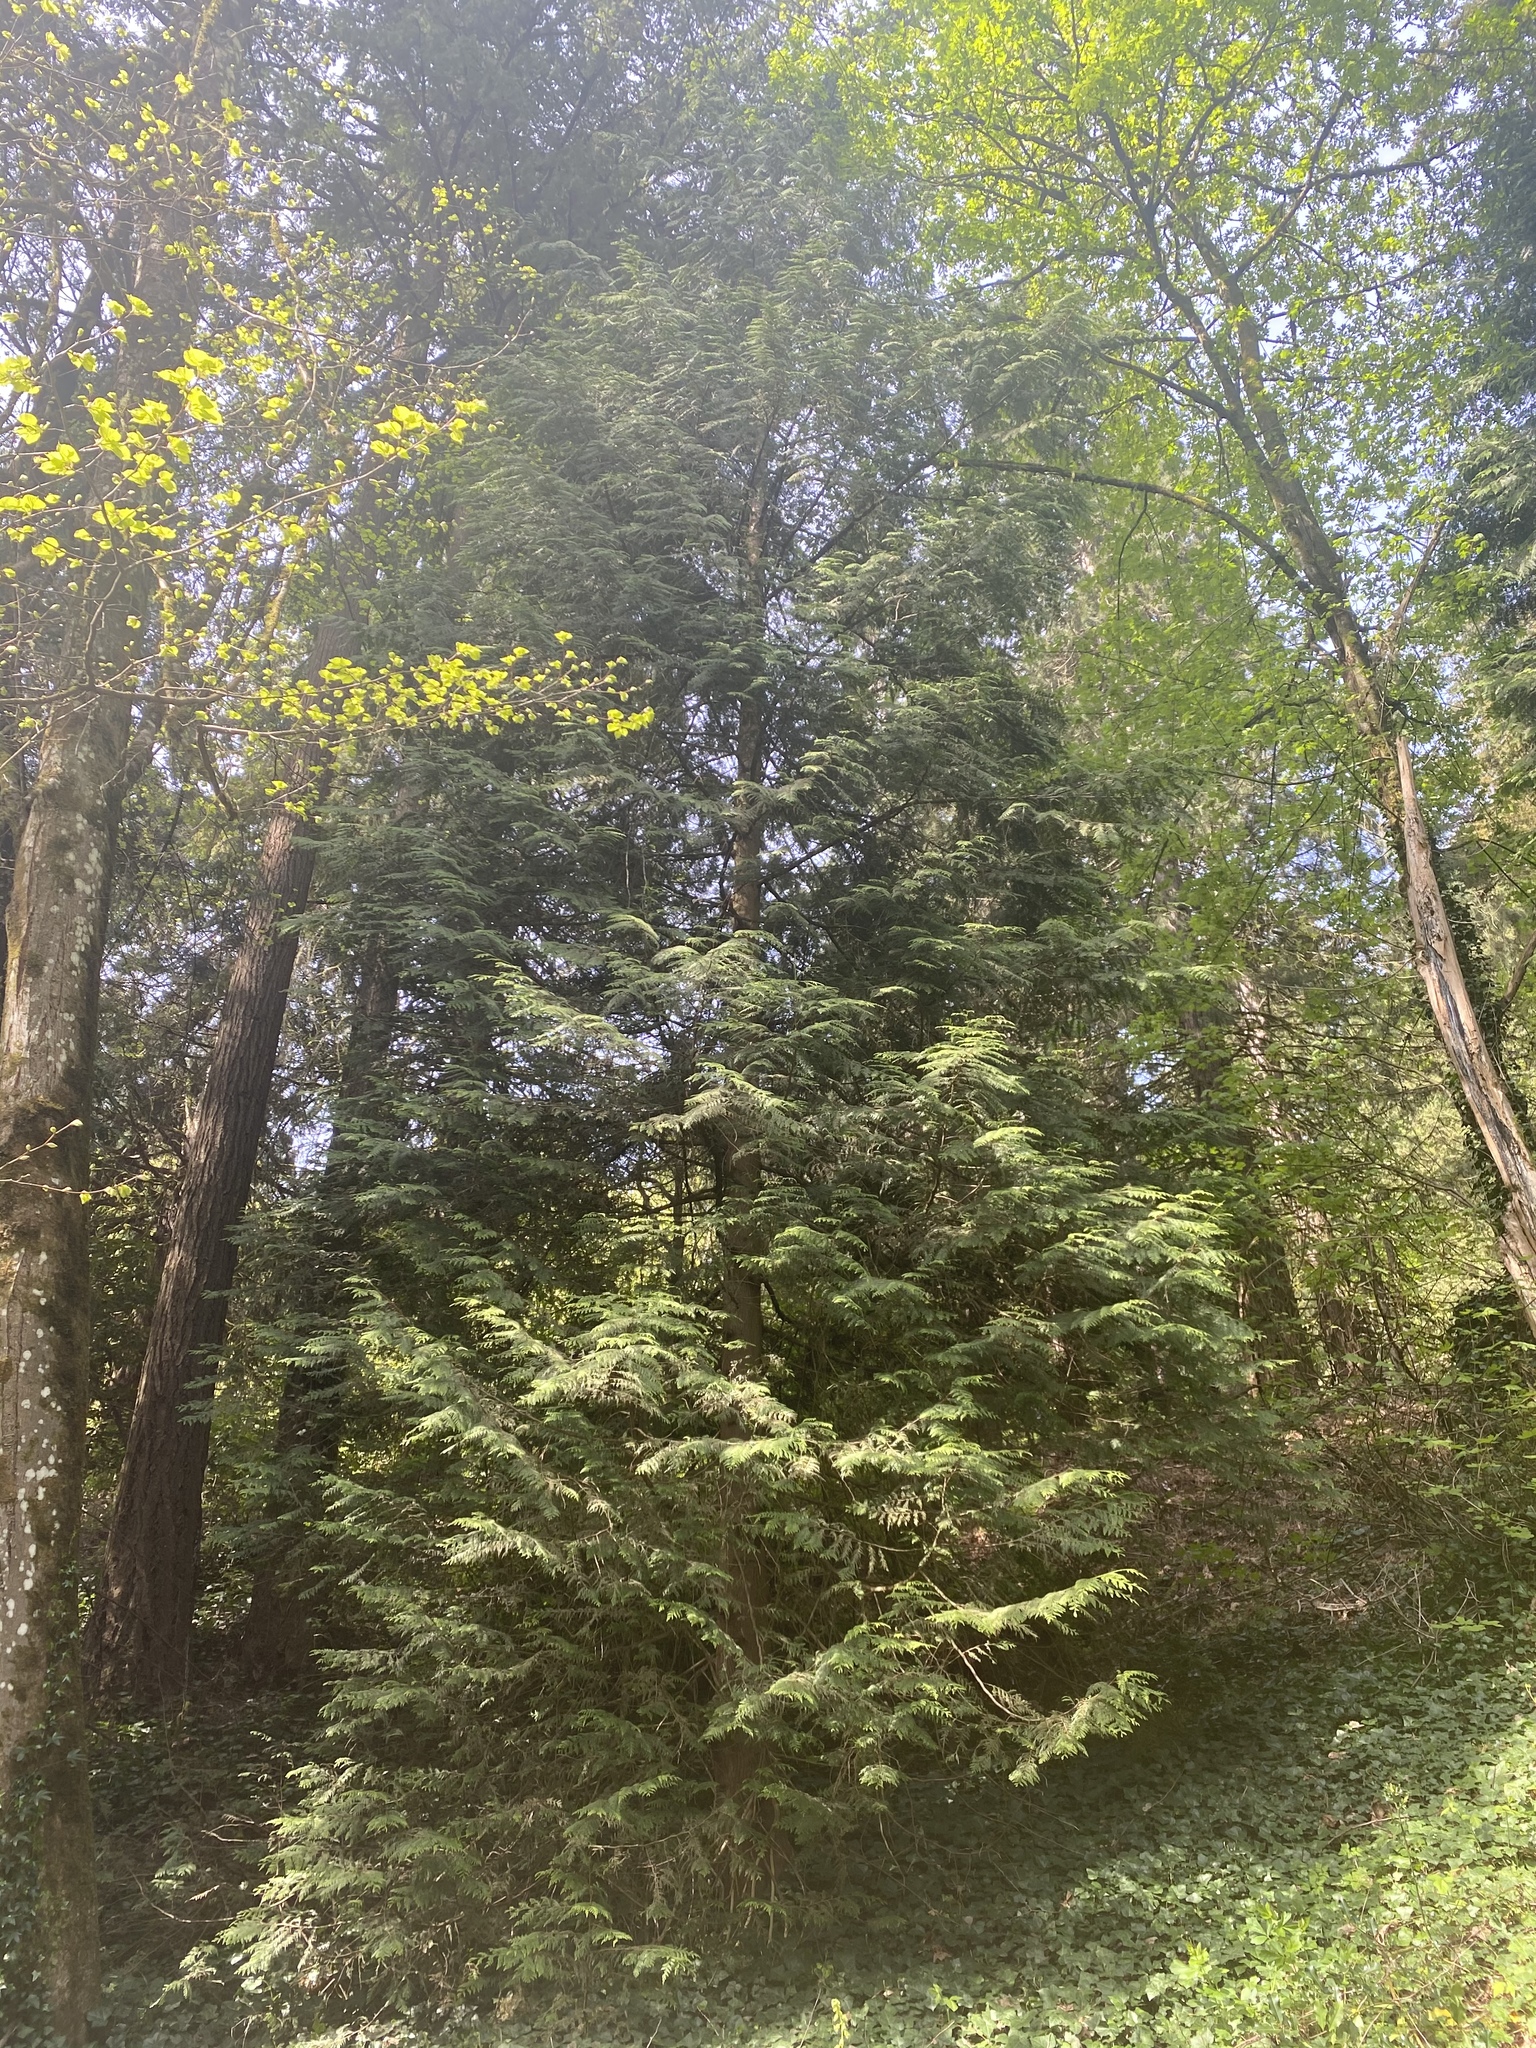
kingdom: Plantae
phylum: Tracheophyta
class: Pinopsida
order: Pinales
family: Cupressaceae
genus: Thuja
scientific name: Thuja plicata
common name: Western red-cedar
